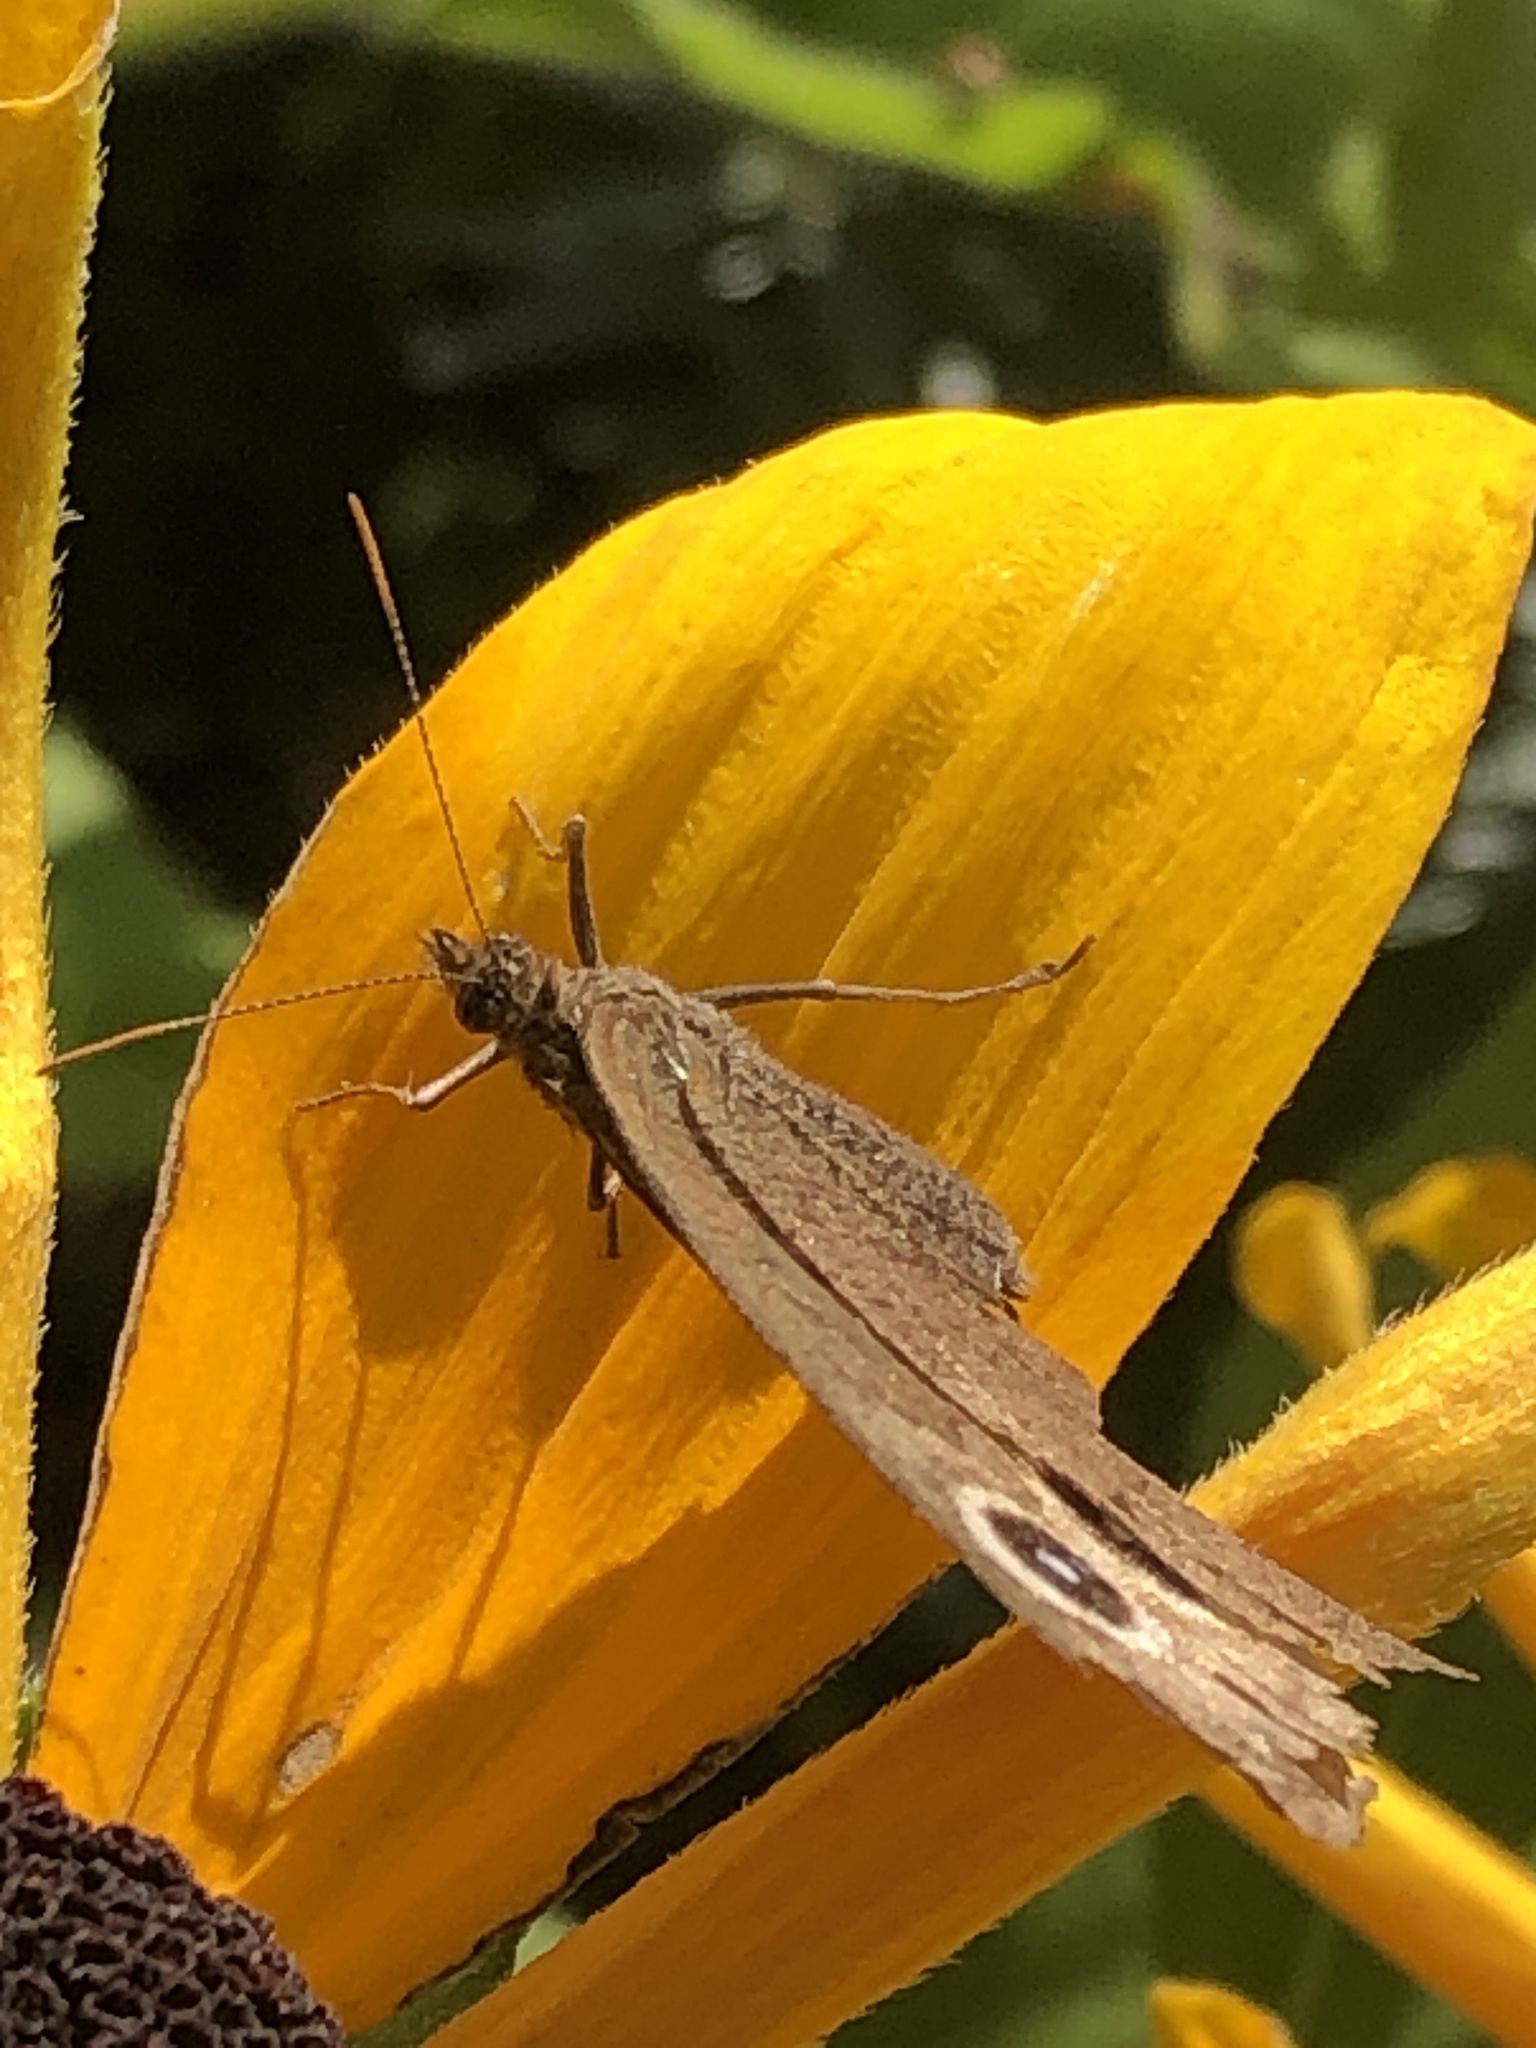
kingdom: Animalia
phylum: Arthropoda
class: Insecta
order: Lepidoptera
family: Nymphalidae
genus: Cercyonis
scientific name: Cercyonis pegala
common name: Common wood-nymph
